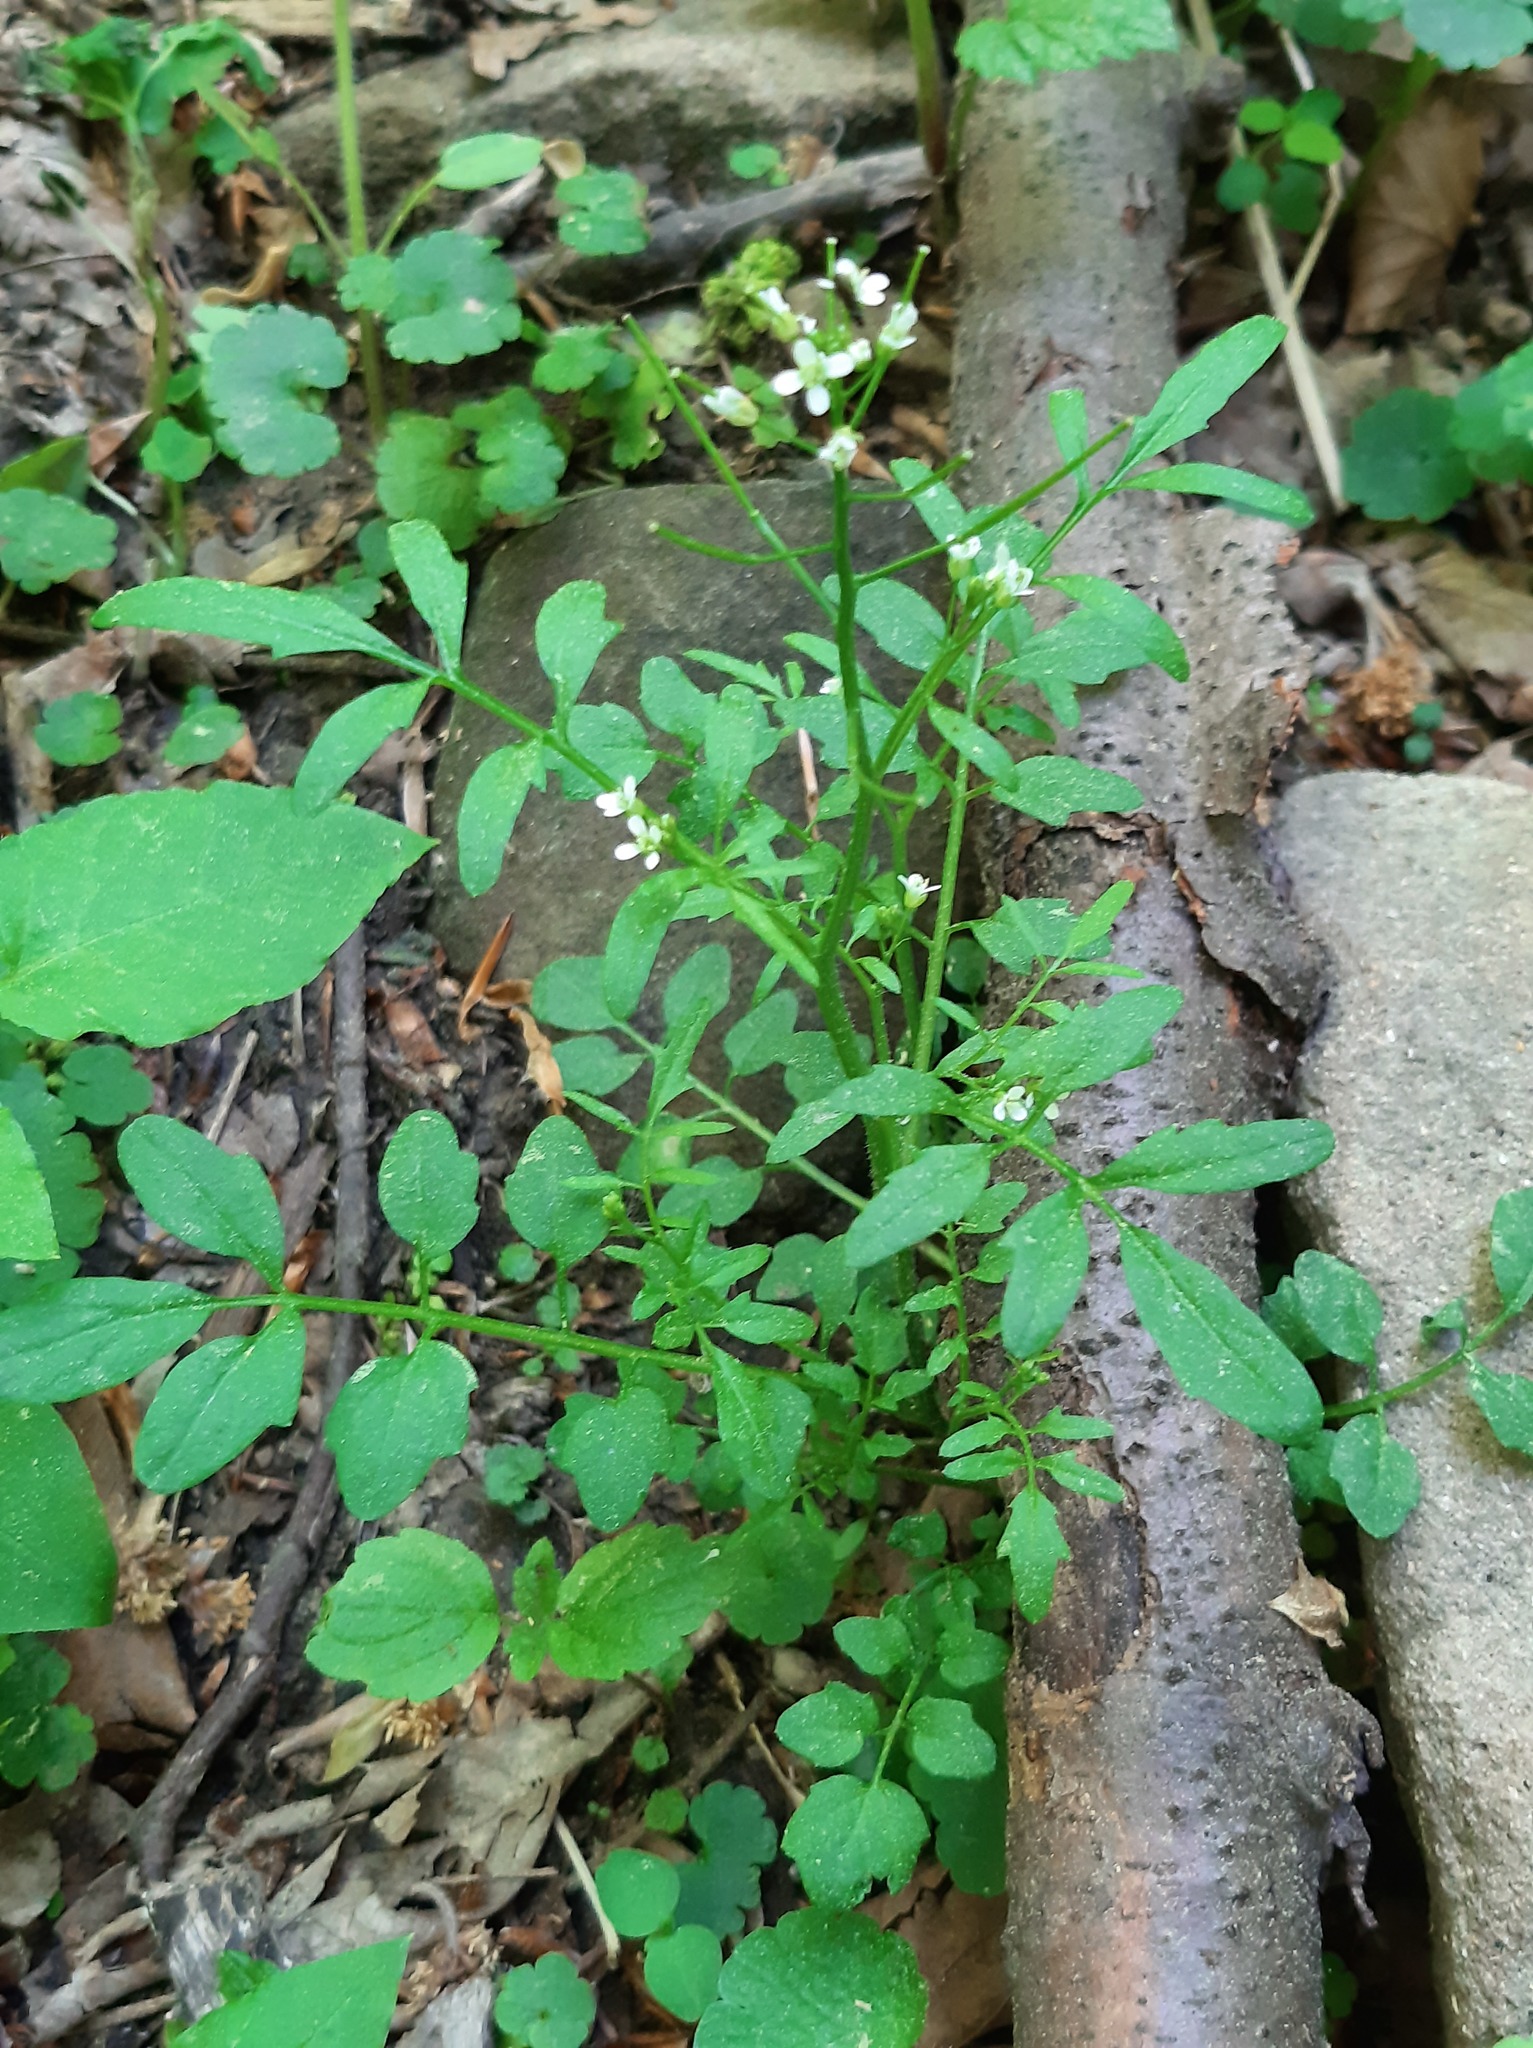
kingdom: Plantae
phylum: Tracheophyta
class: Magnoliopsida
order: Brassicales
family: Brassicaceae
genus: Cardamine
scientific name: Cardamine flexuosa
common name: Woodland bittercress
